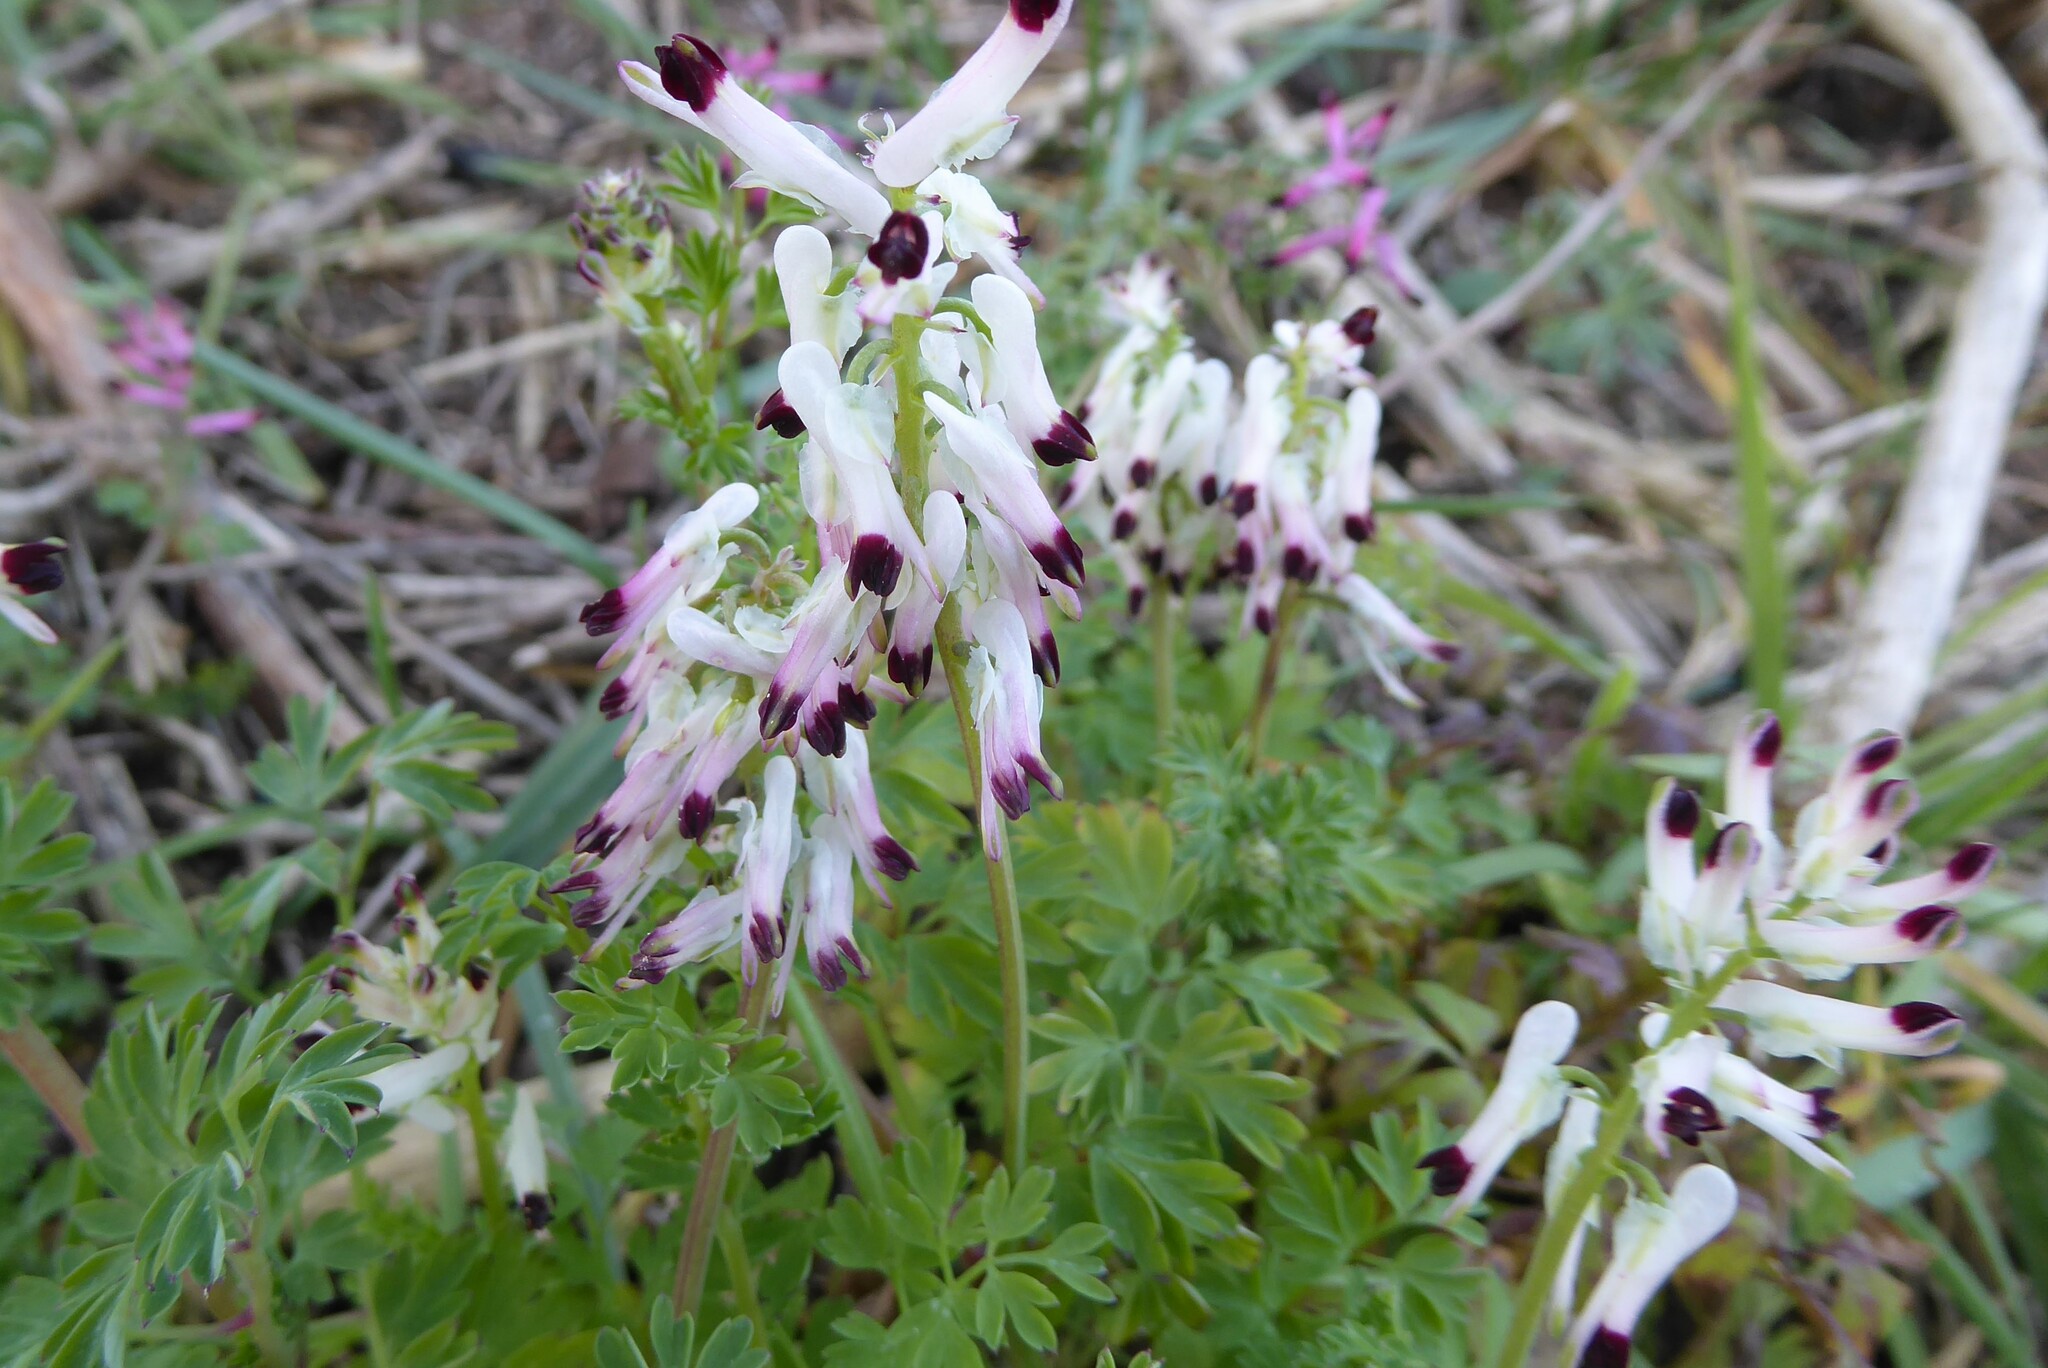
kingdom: Plantae
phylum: Tracheophyta
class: Magnoliopsida
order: Ranunculales
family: Papaveraceae
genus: Fumaria
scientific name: Fumaria capreolata
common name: White ramping-fumitory
